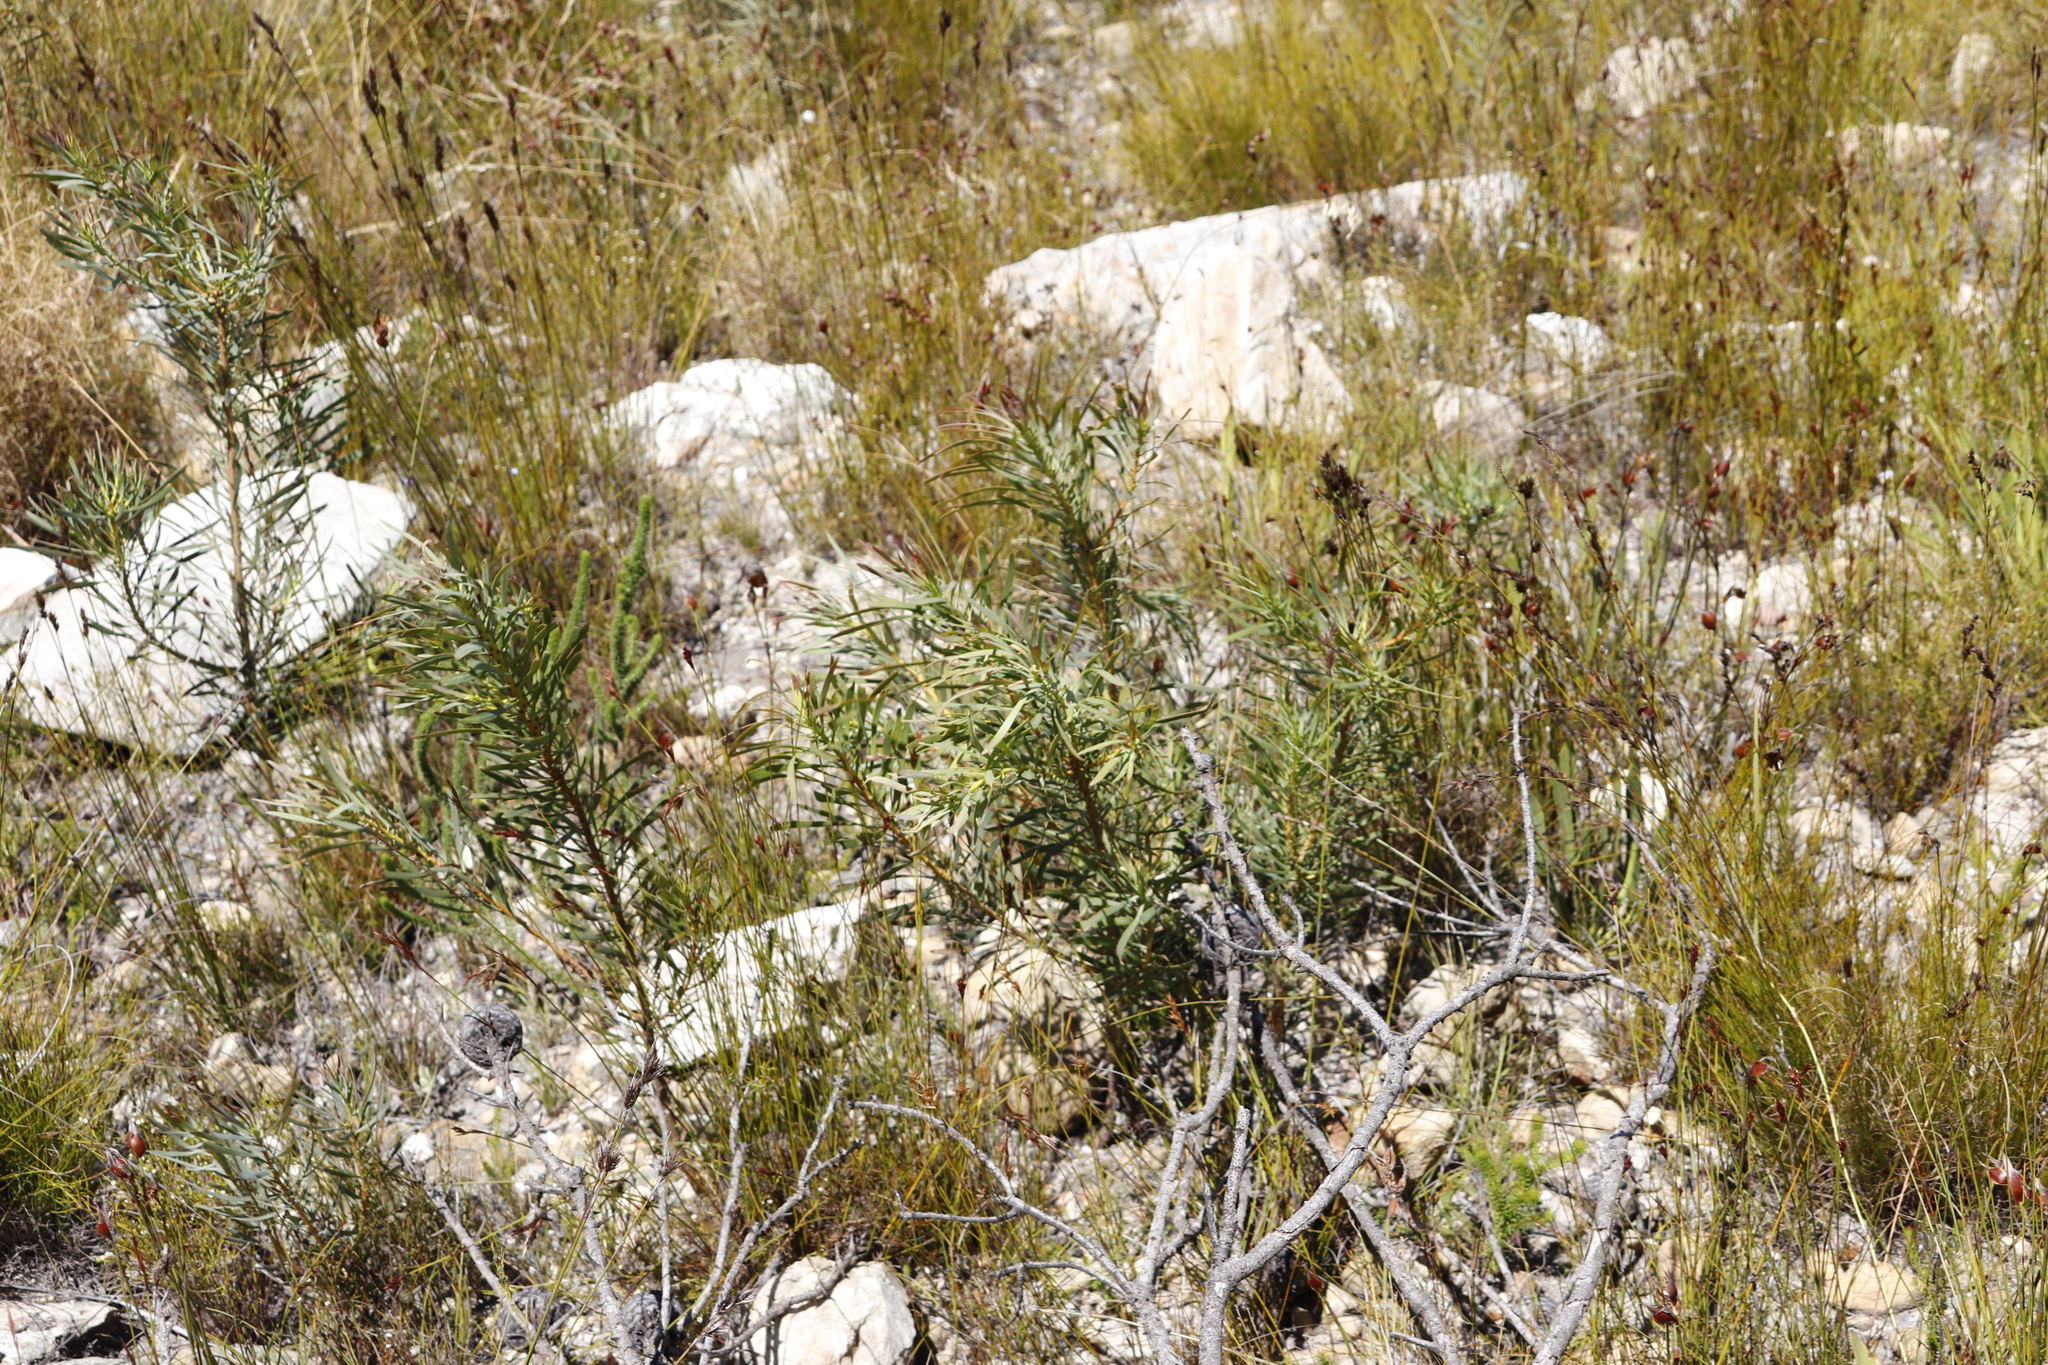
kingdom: Plantae
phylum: Tracheophyta
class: Magnoliopsida
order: Proteales
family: Proteaceae
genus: Protea
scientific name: Protea repens
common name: Sugarbush
